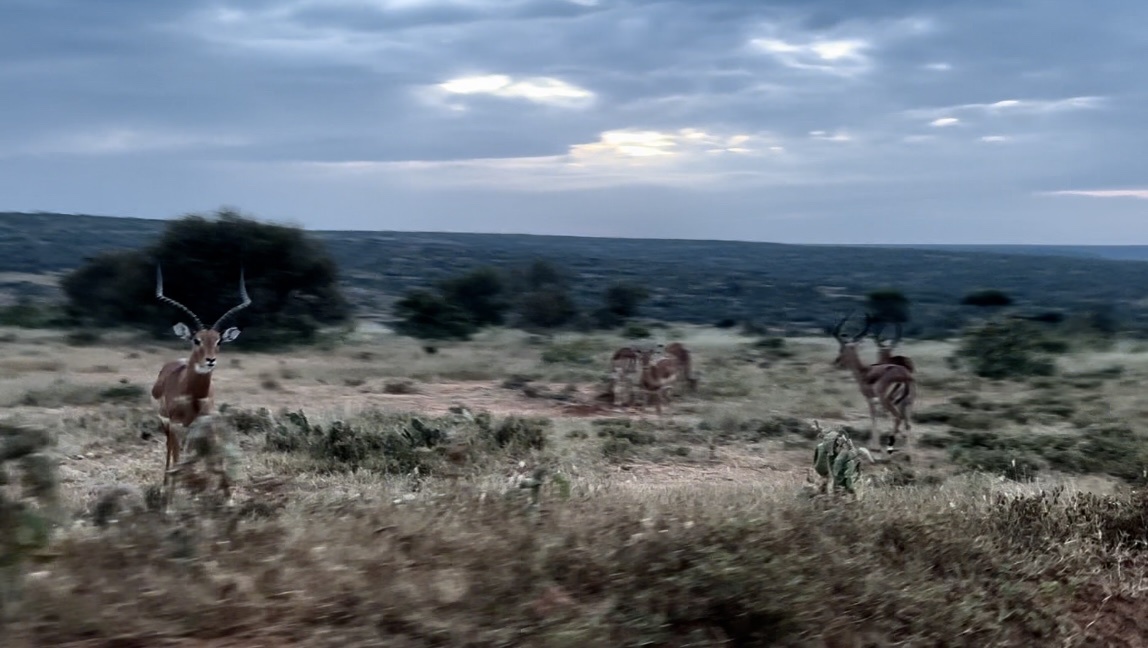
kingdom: Animalia
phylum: Chordata
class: Mammalia
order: Artiodactyla
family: Bovidae
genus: Aepyceros
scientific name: Aepyceros melampus
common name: Impala
